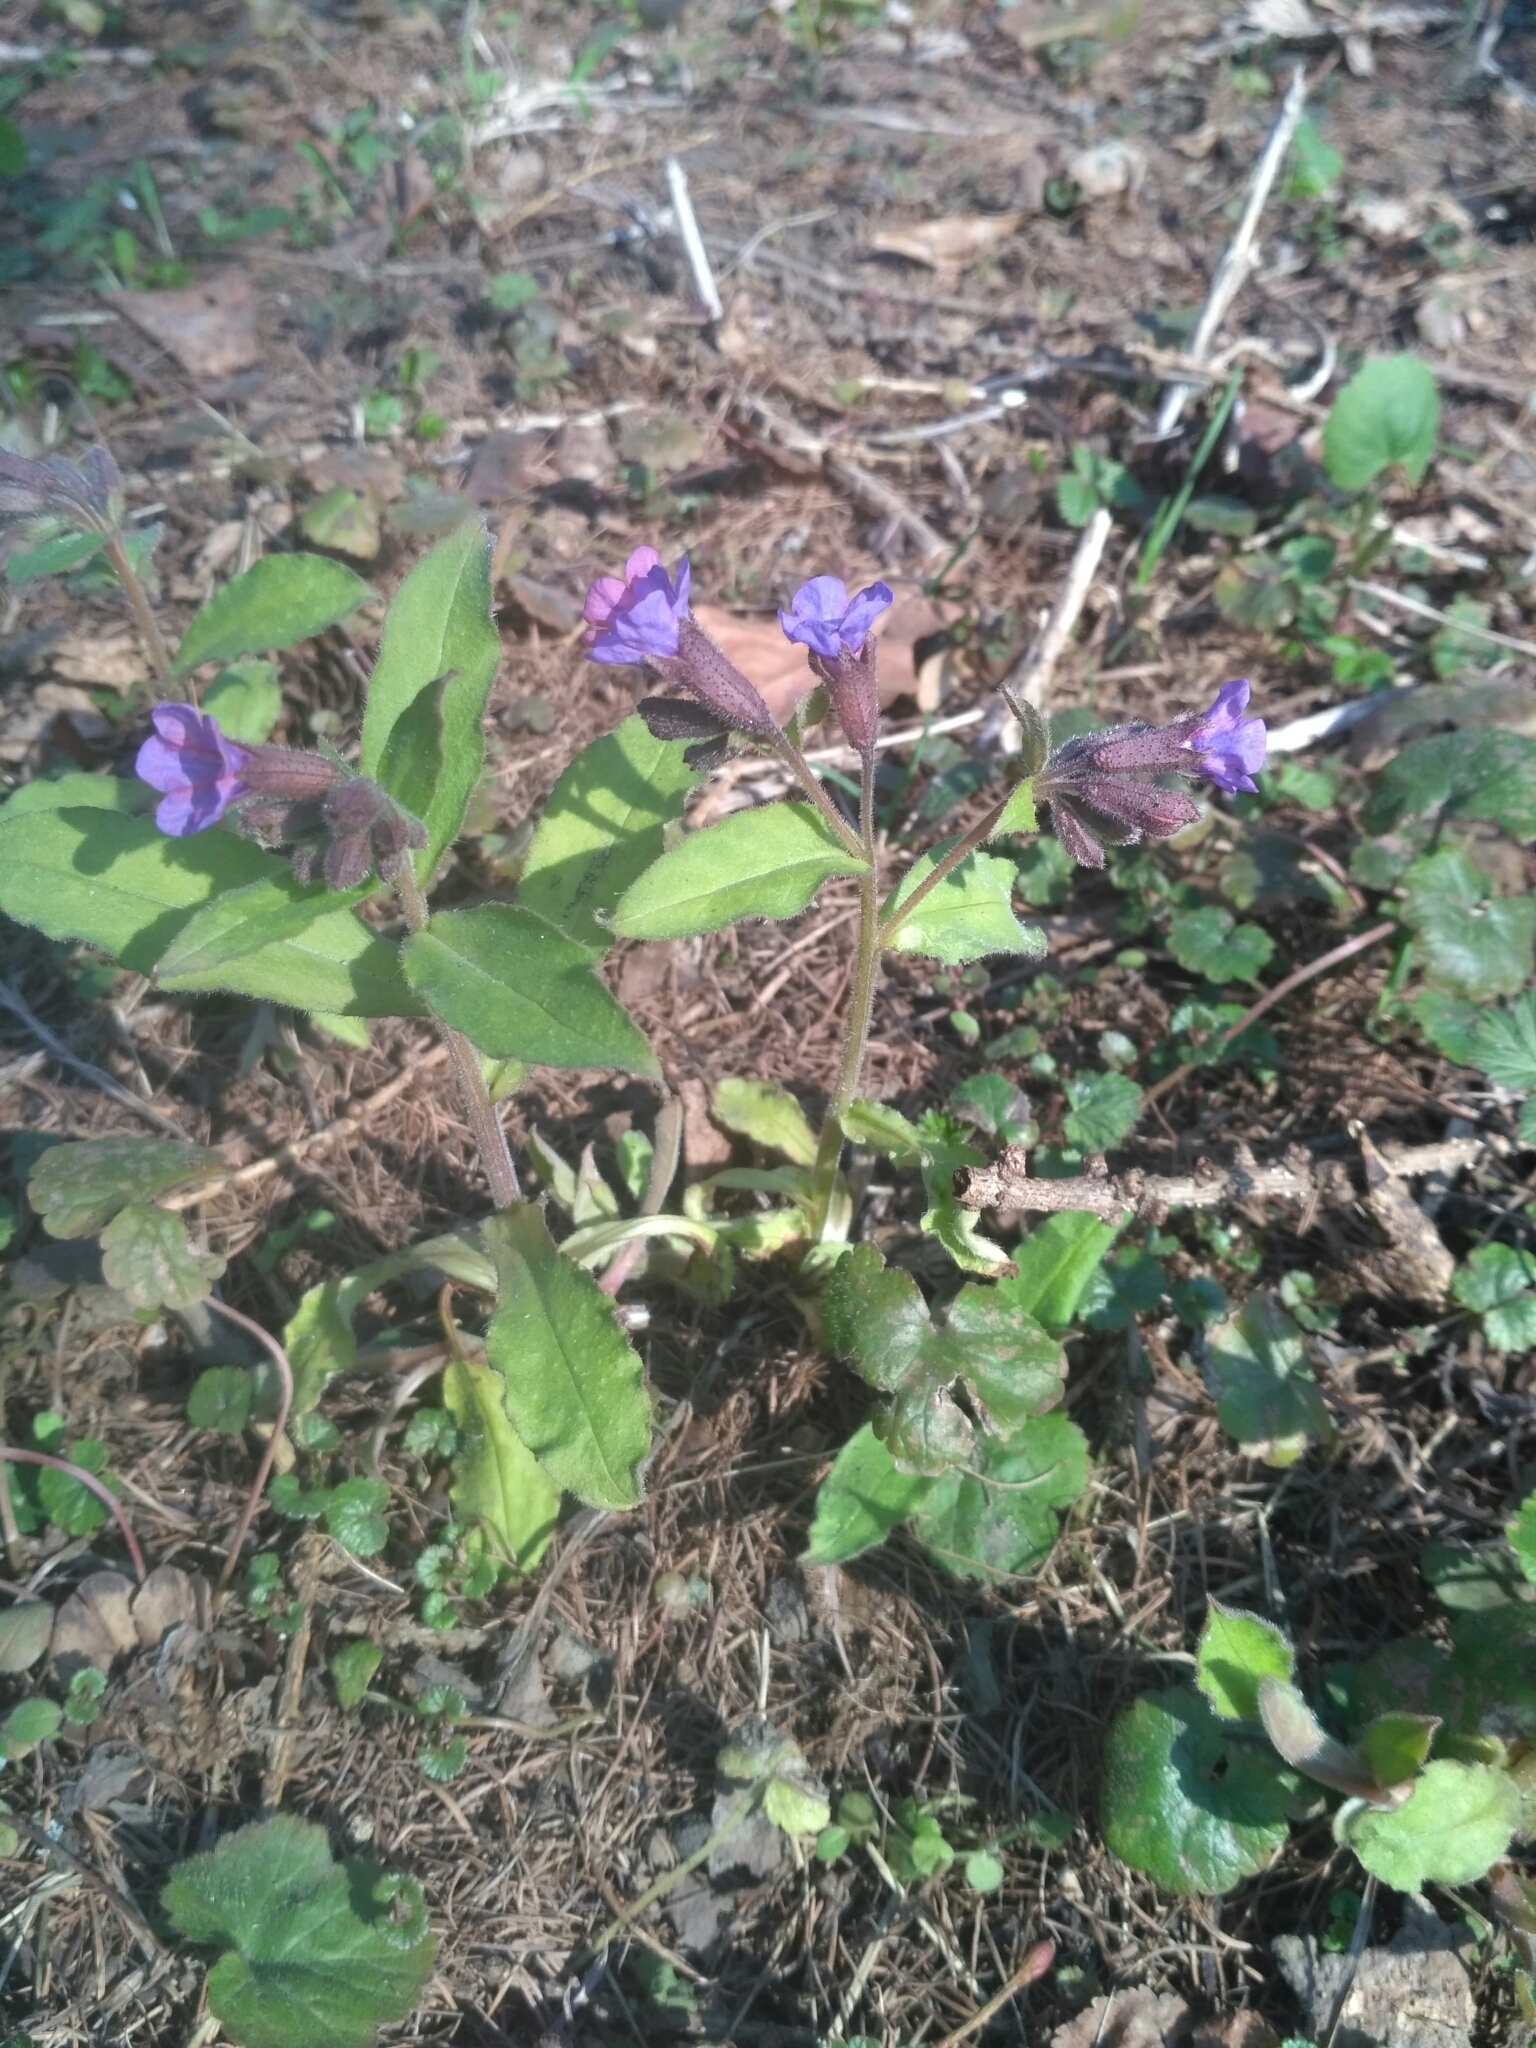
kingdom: Plantae
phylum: Tracheophyta
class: Magnoliopsida
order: Boraginales
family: Boraginaceae
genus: Pulmonaria
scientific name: Pulmonaria obscura
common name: Suffolk lungwort
